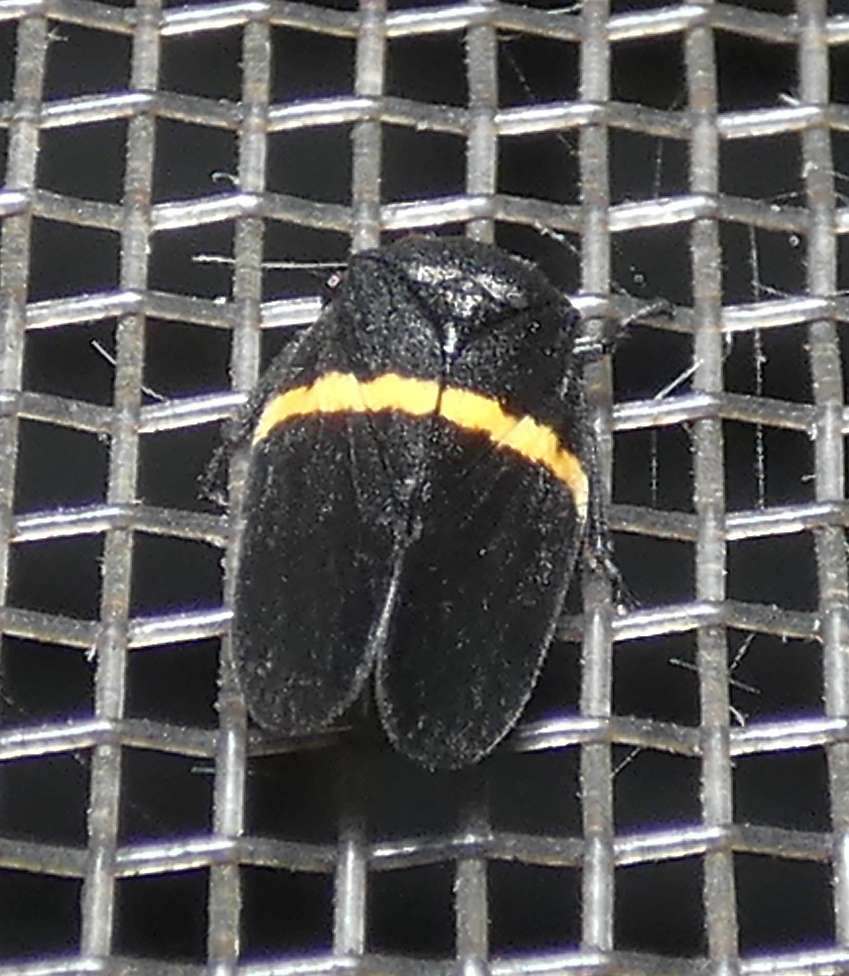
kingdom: Animalia
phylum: Arthropoda
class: Insecta
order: Hemiptera
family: Cercopidae
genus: Aeneolamia
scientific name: Aeneolamia colon
